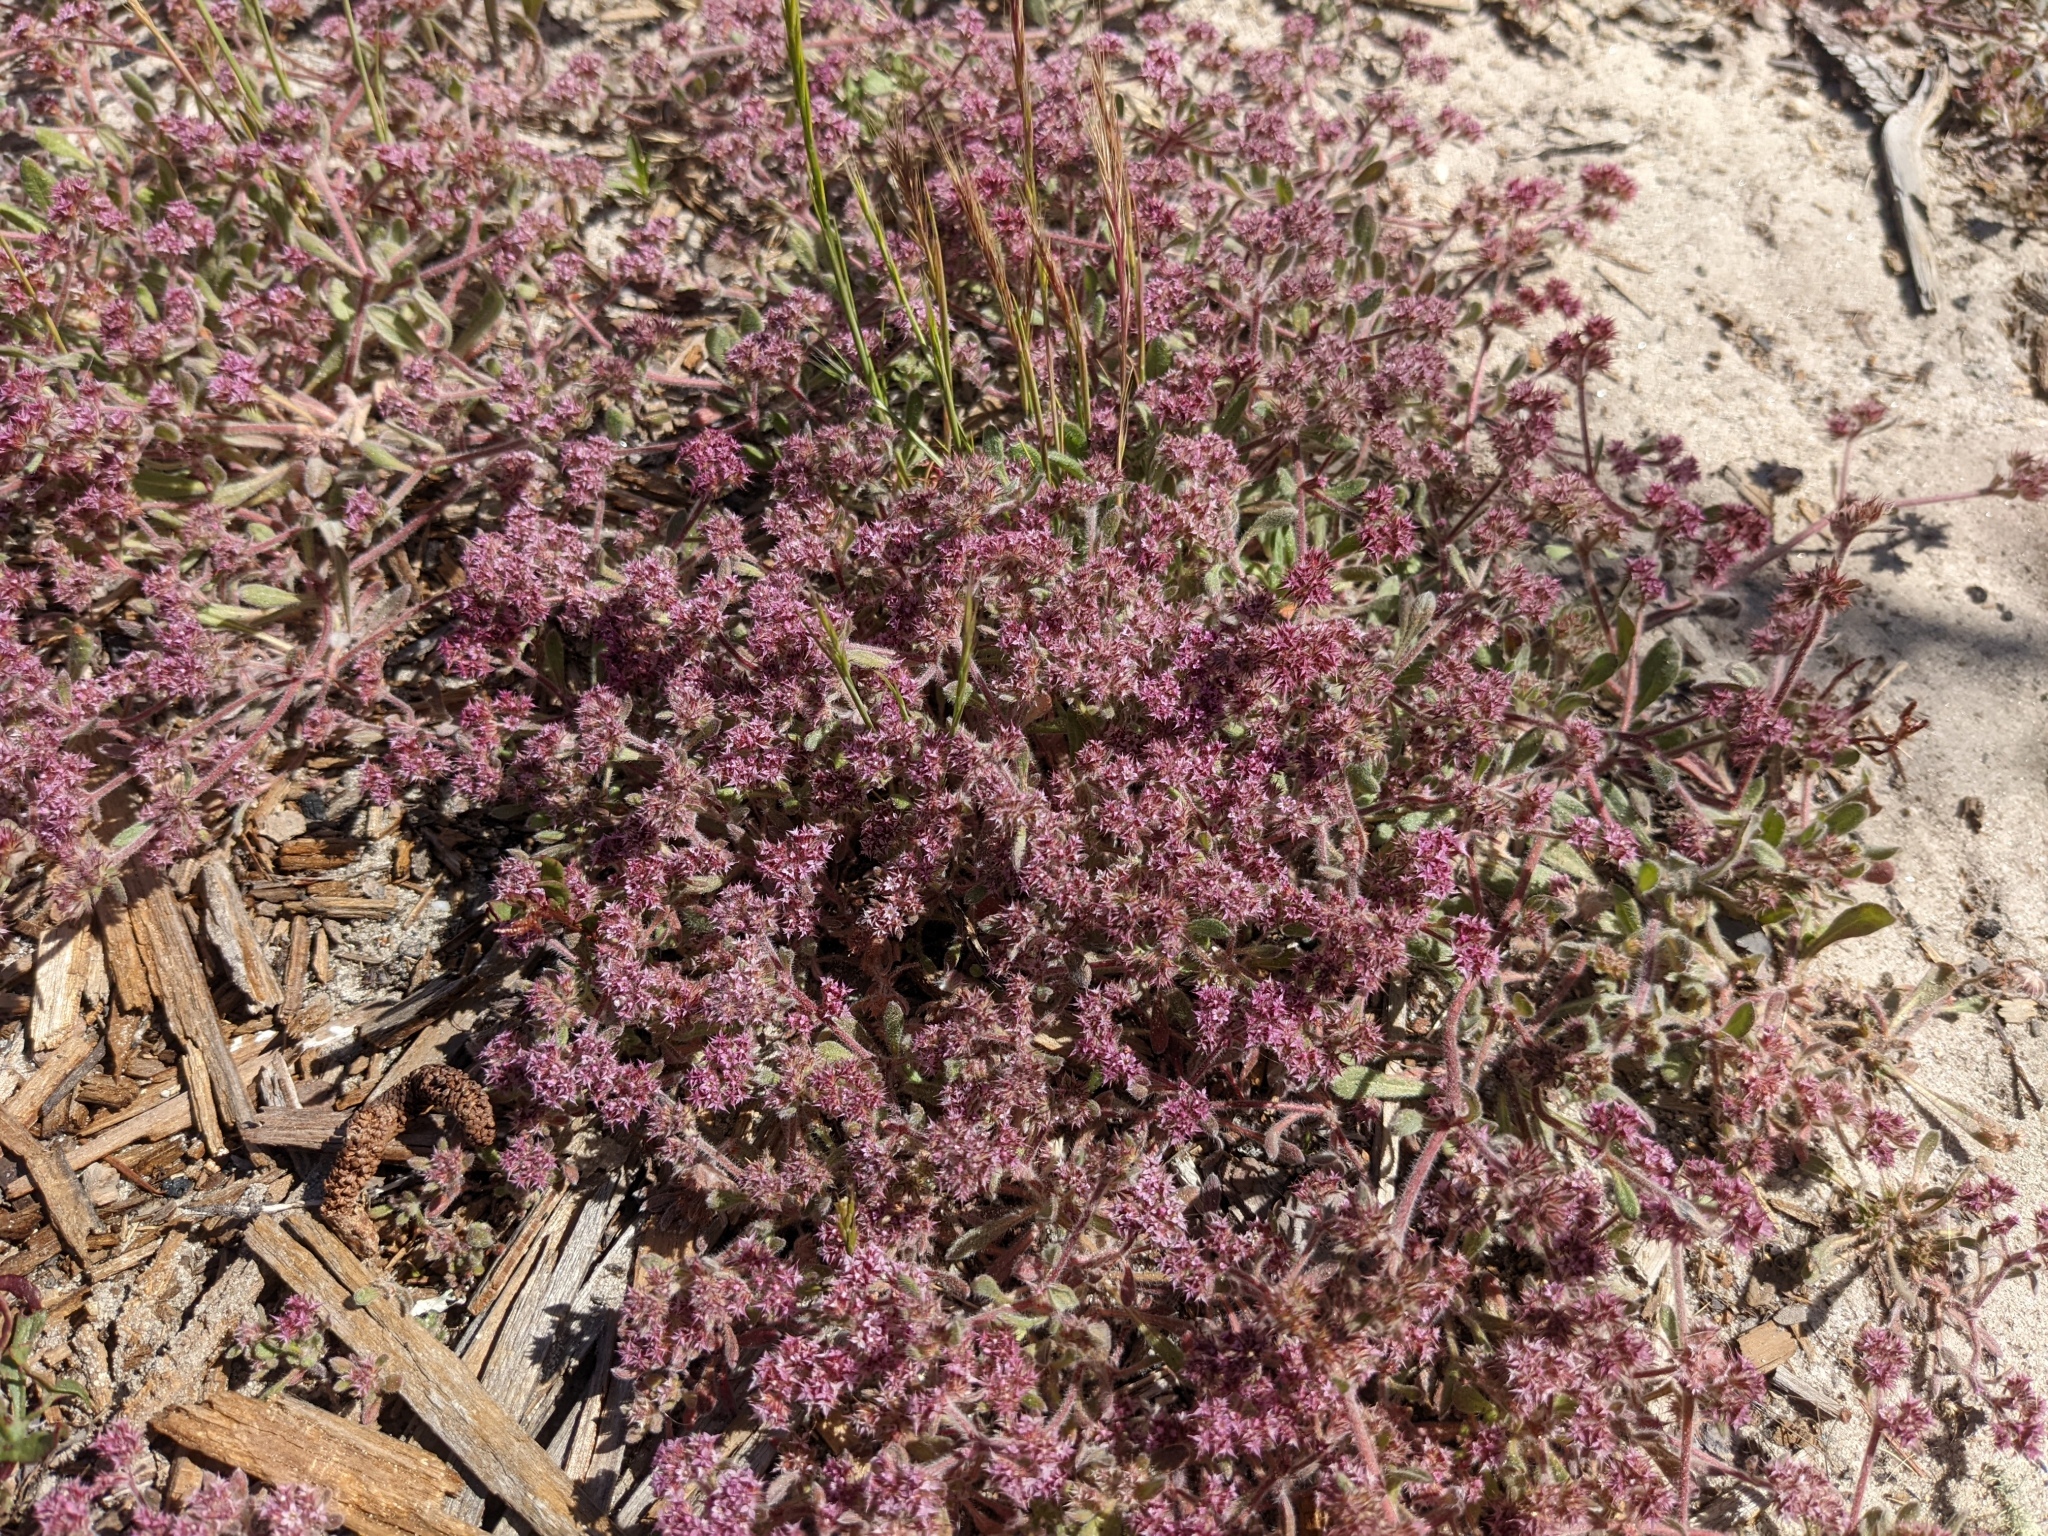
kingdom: Plantae
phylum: Tracheophyta
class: Magnoliopsida
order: Caryophyllales
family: Polygonaceae
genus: Chorizanthe
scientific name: Chorizanthe pungens
